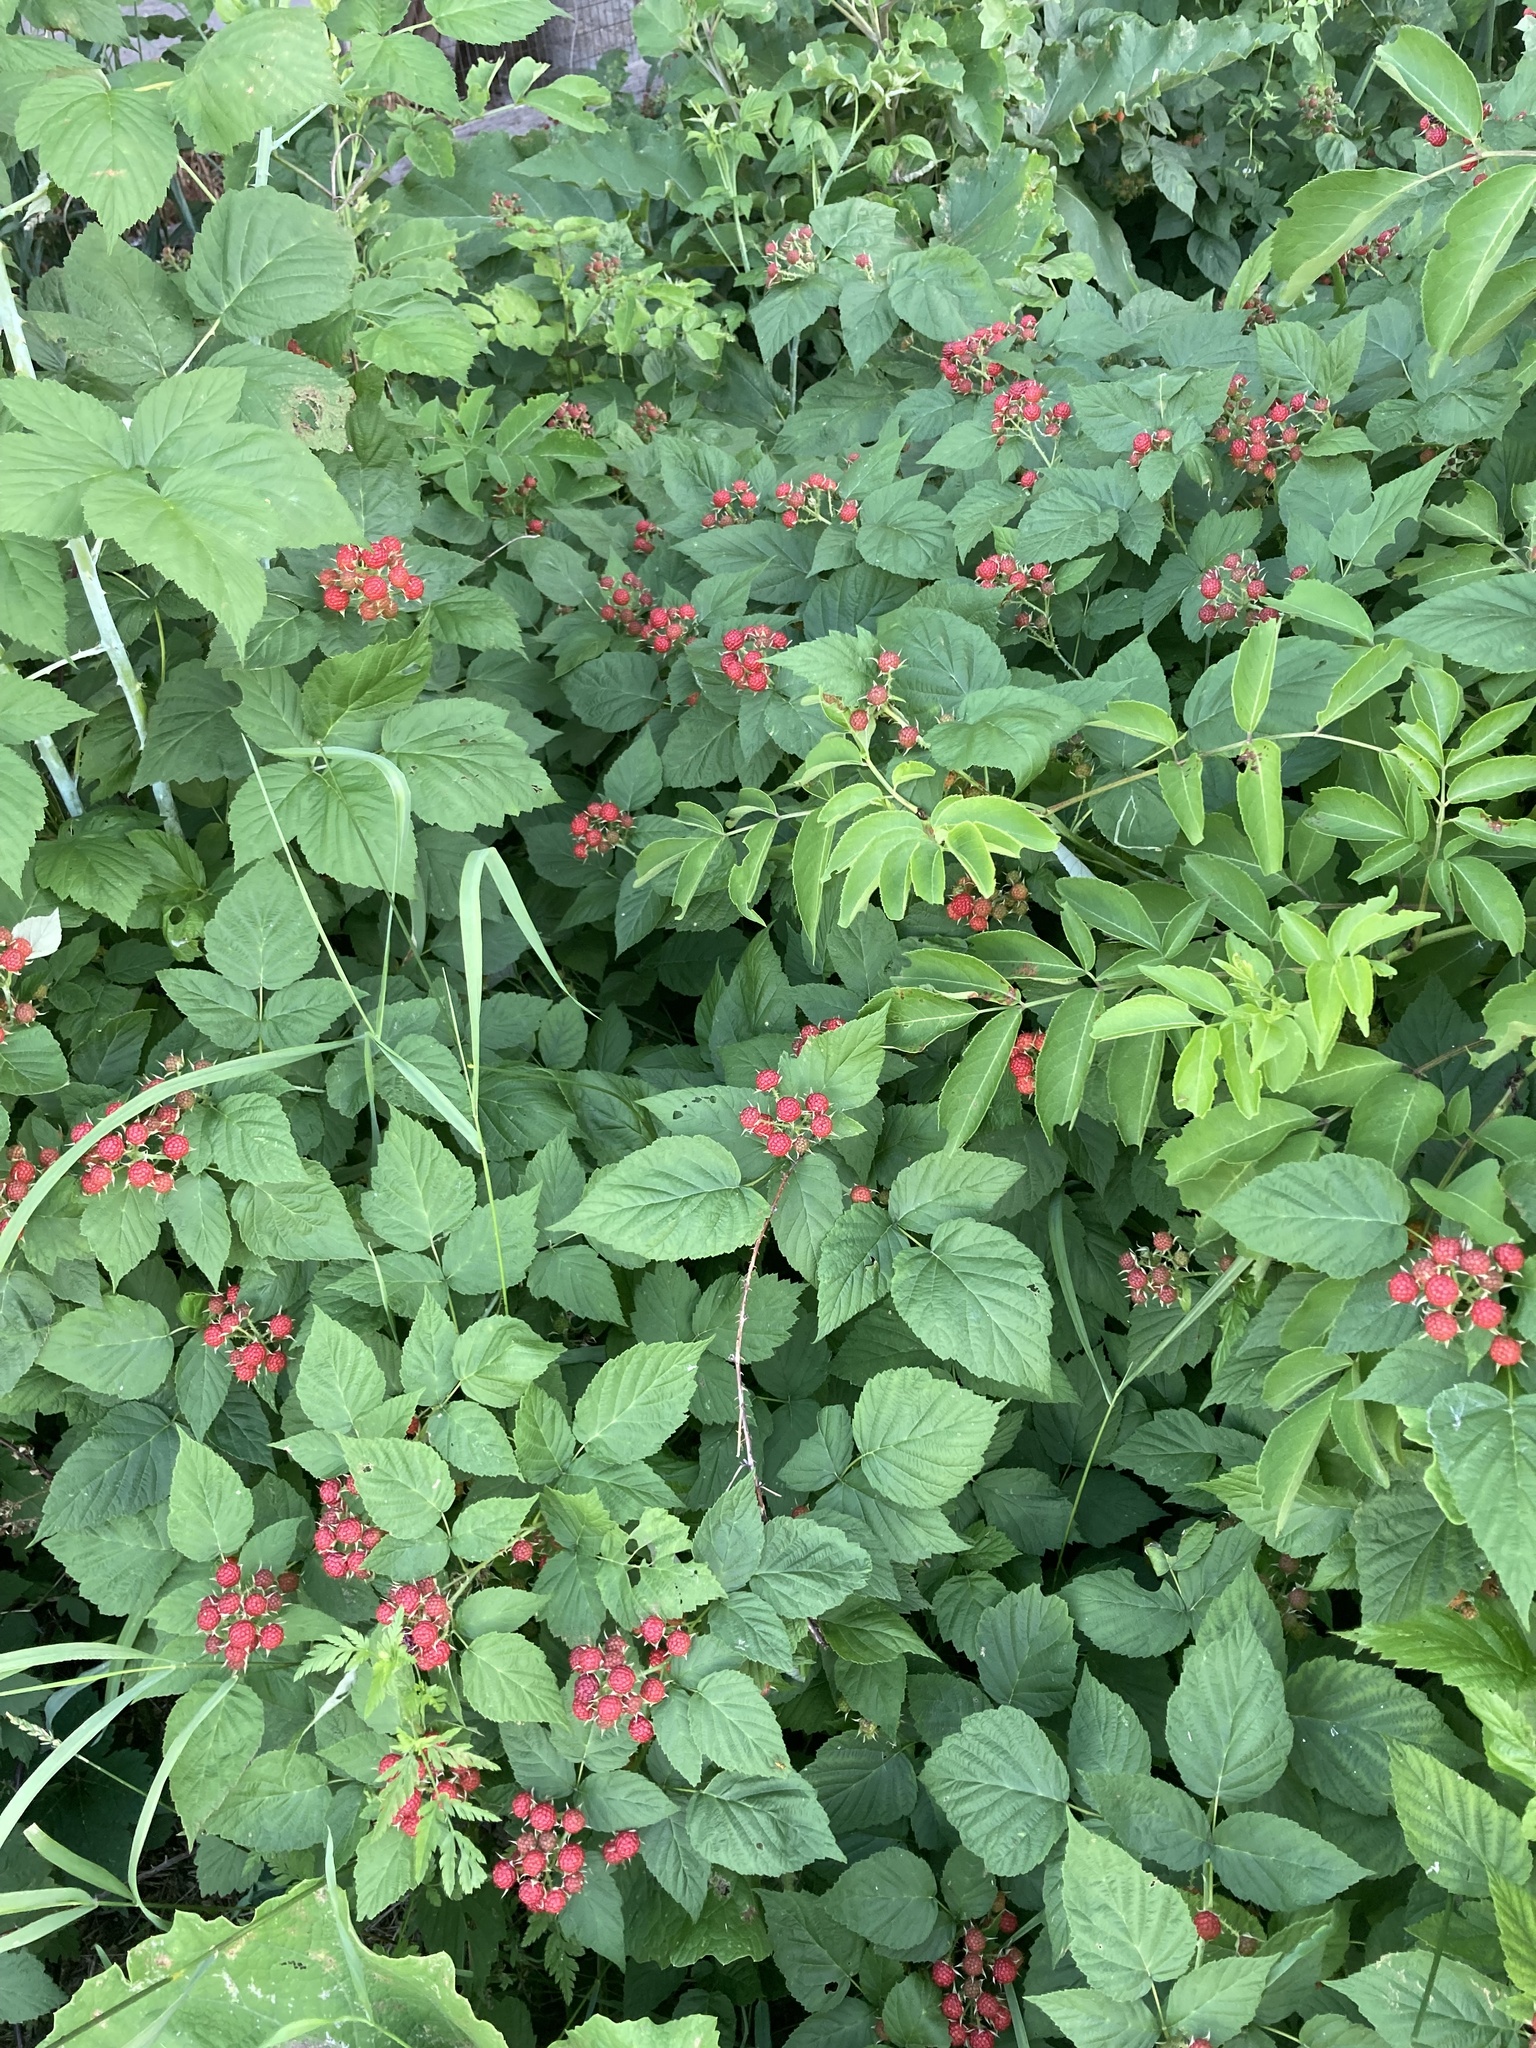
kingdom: Plantae
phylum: Tracheophyta
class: Magnoliopsida
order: Rosales
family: Rosaceae
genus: Rubus
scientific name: Rubus occidentalis
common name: Black raspberry
